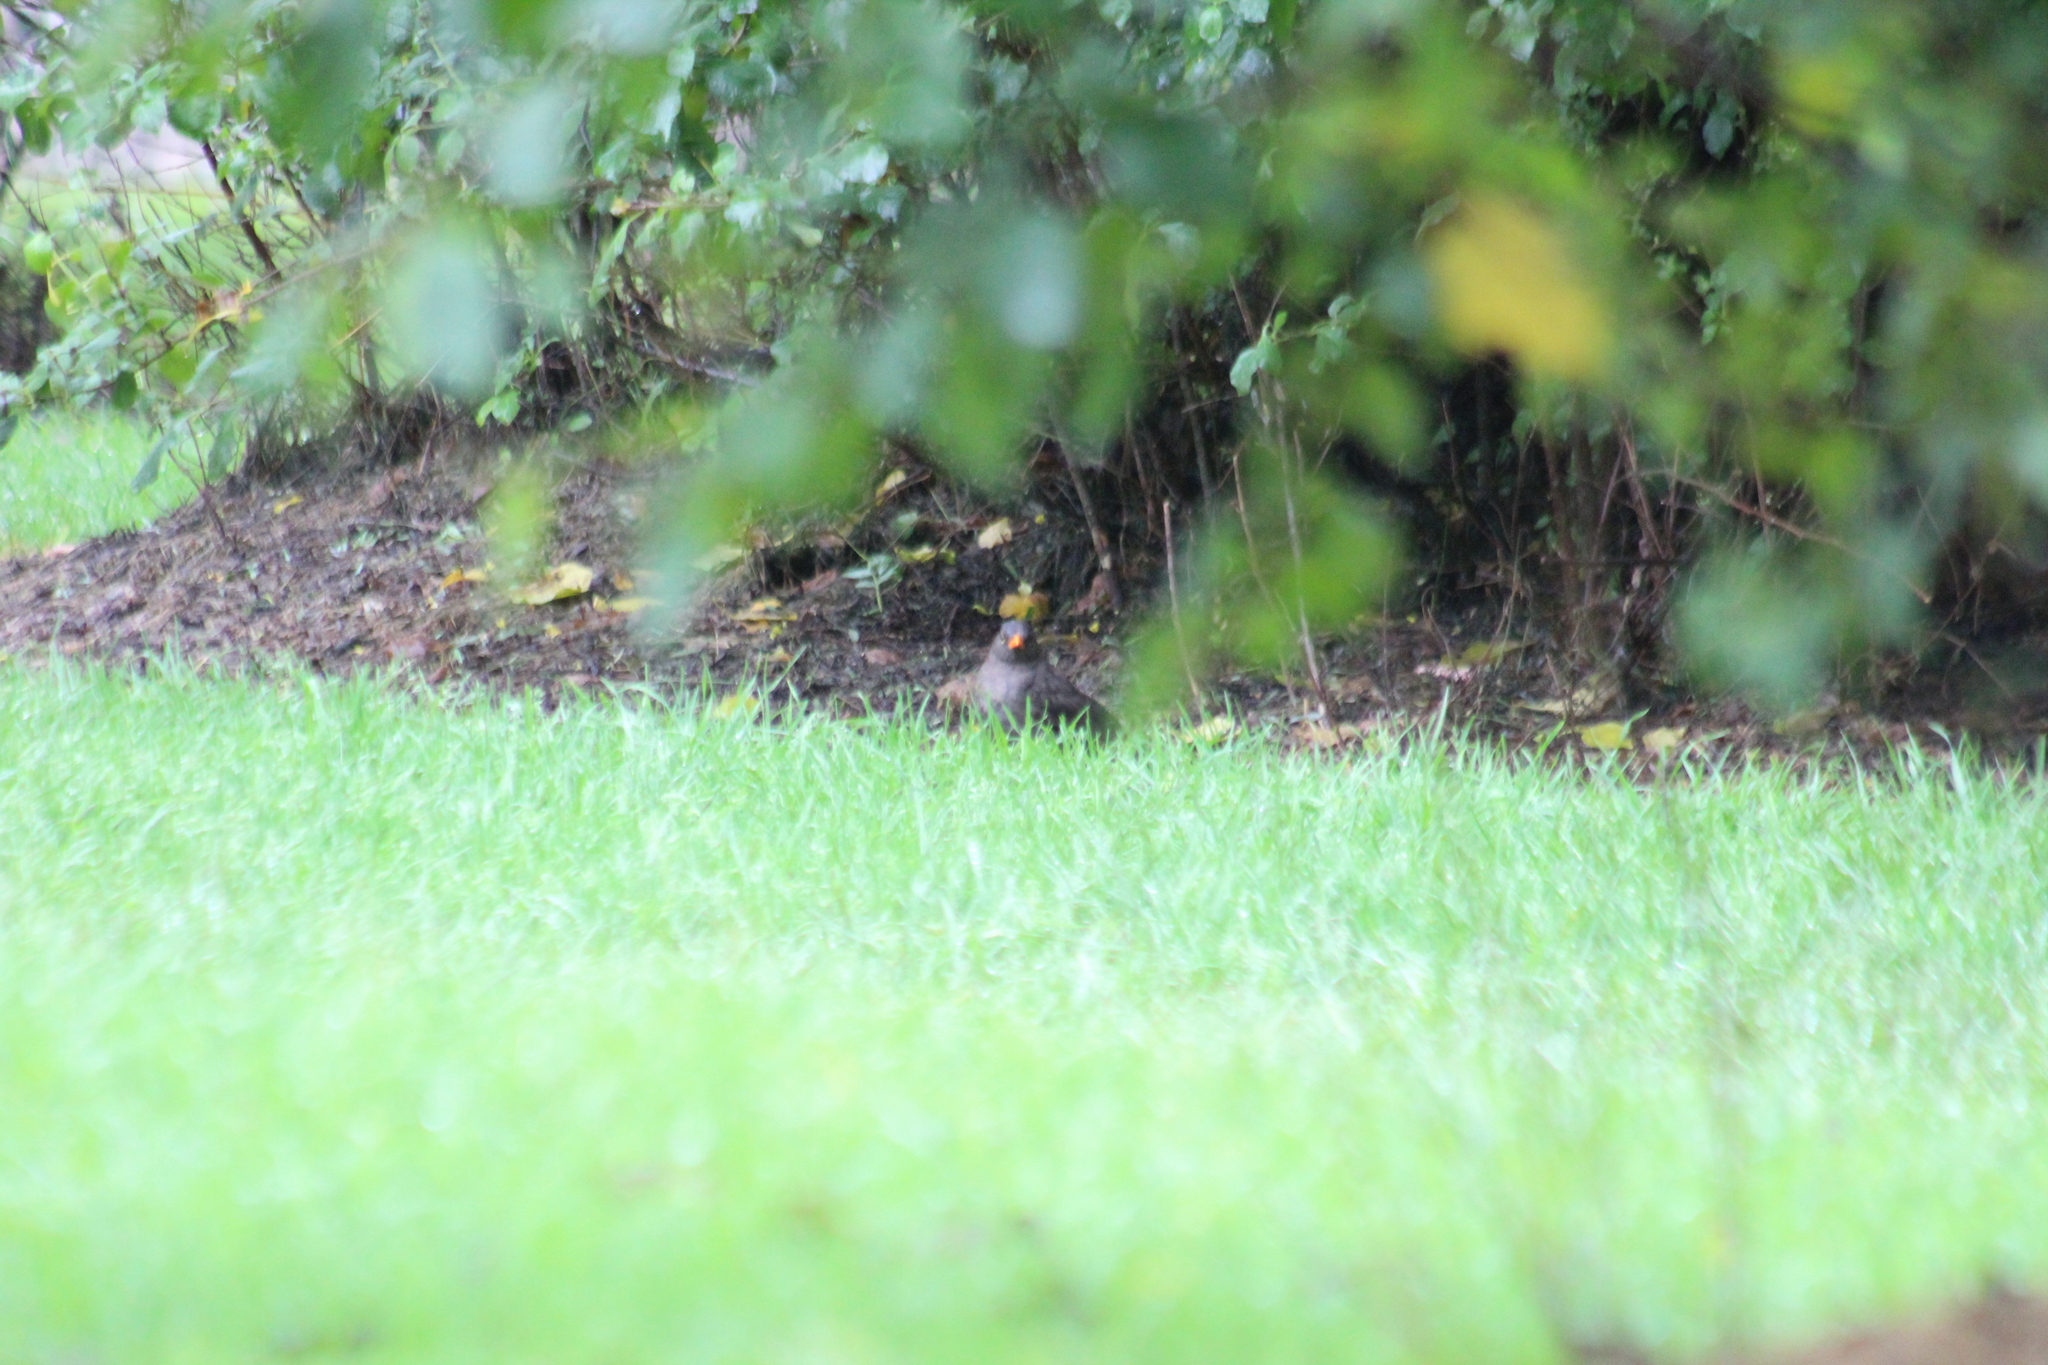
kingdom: Animalia
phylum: Chordata
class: Aves
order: Passeriformes
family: Turdidae
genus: Turdus
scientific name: Turdus fuscater
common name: Great thrush
